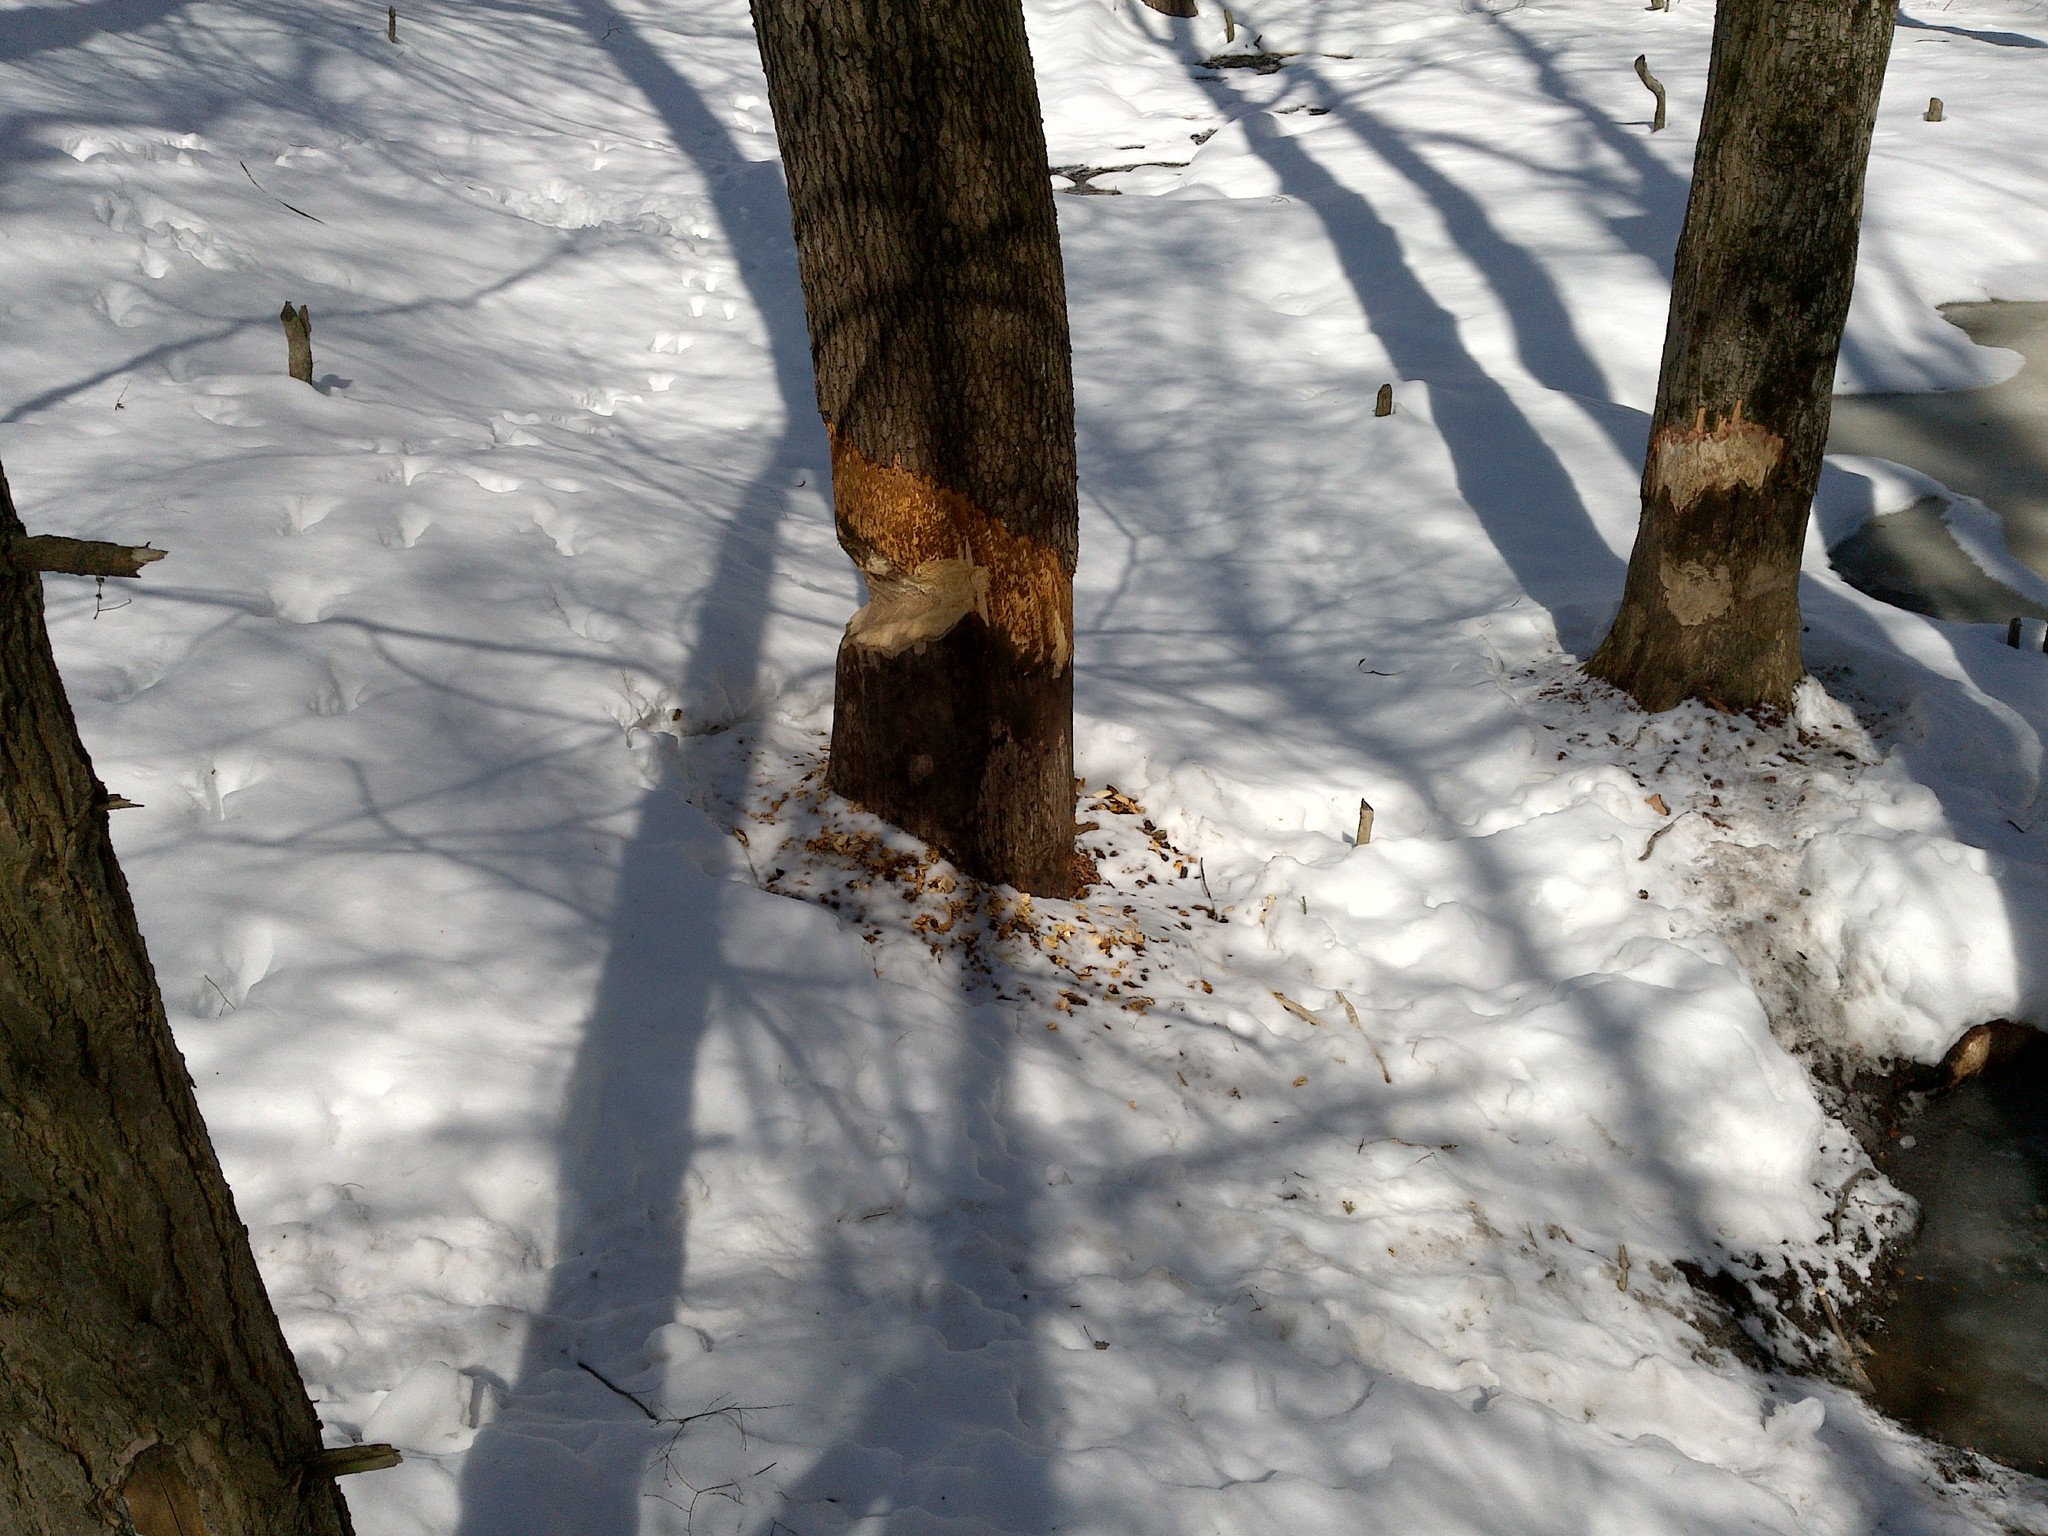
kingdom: Animalia
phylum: Chordata
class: Mammalia
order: Rodentia
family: Castoridae
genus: Castor
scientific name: Castor canadensis
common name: American beaver
